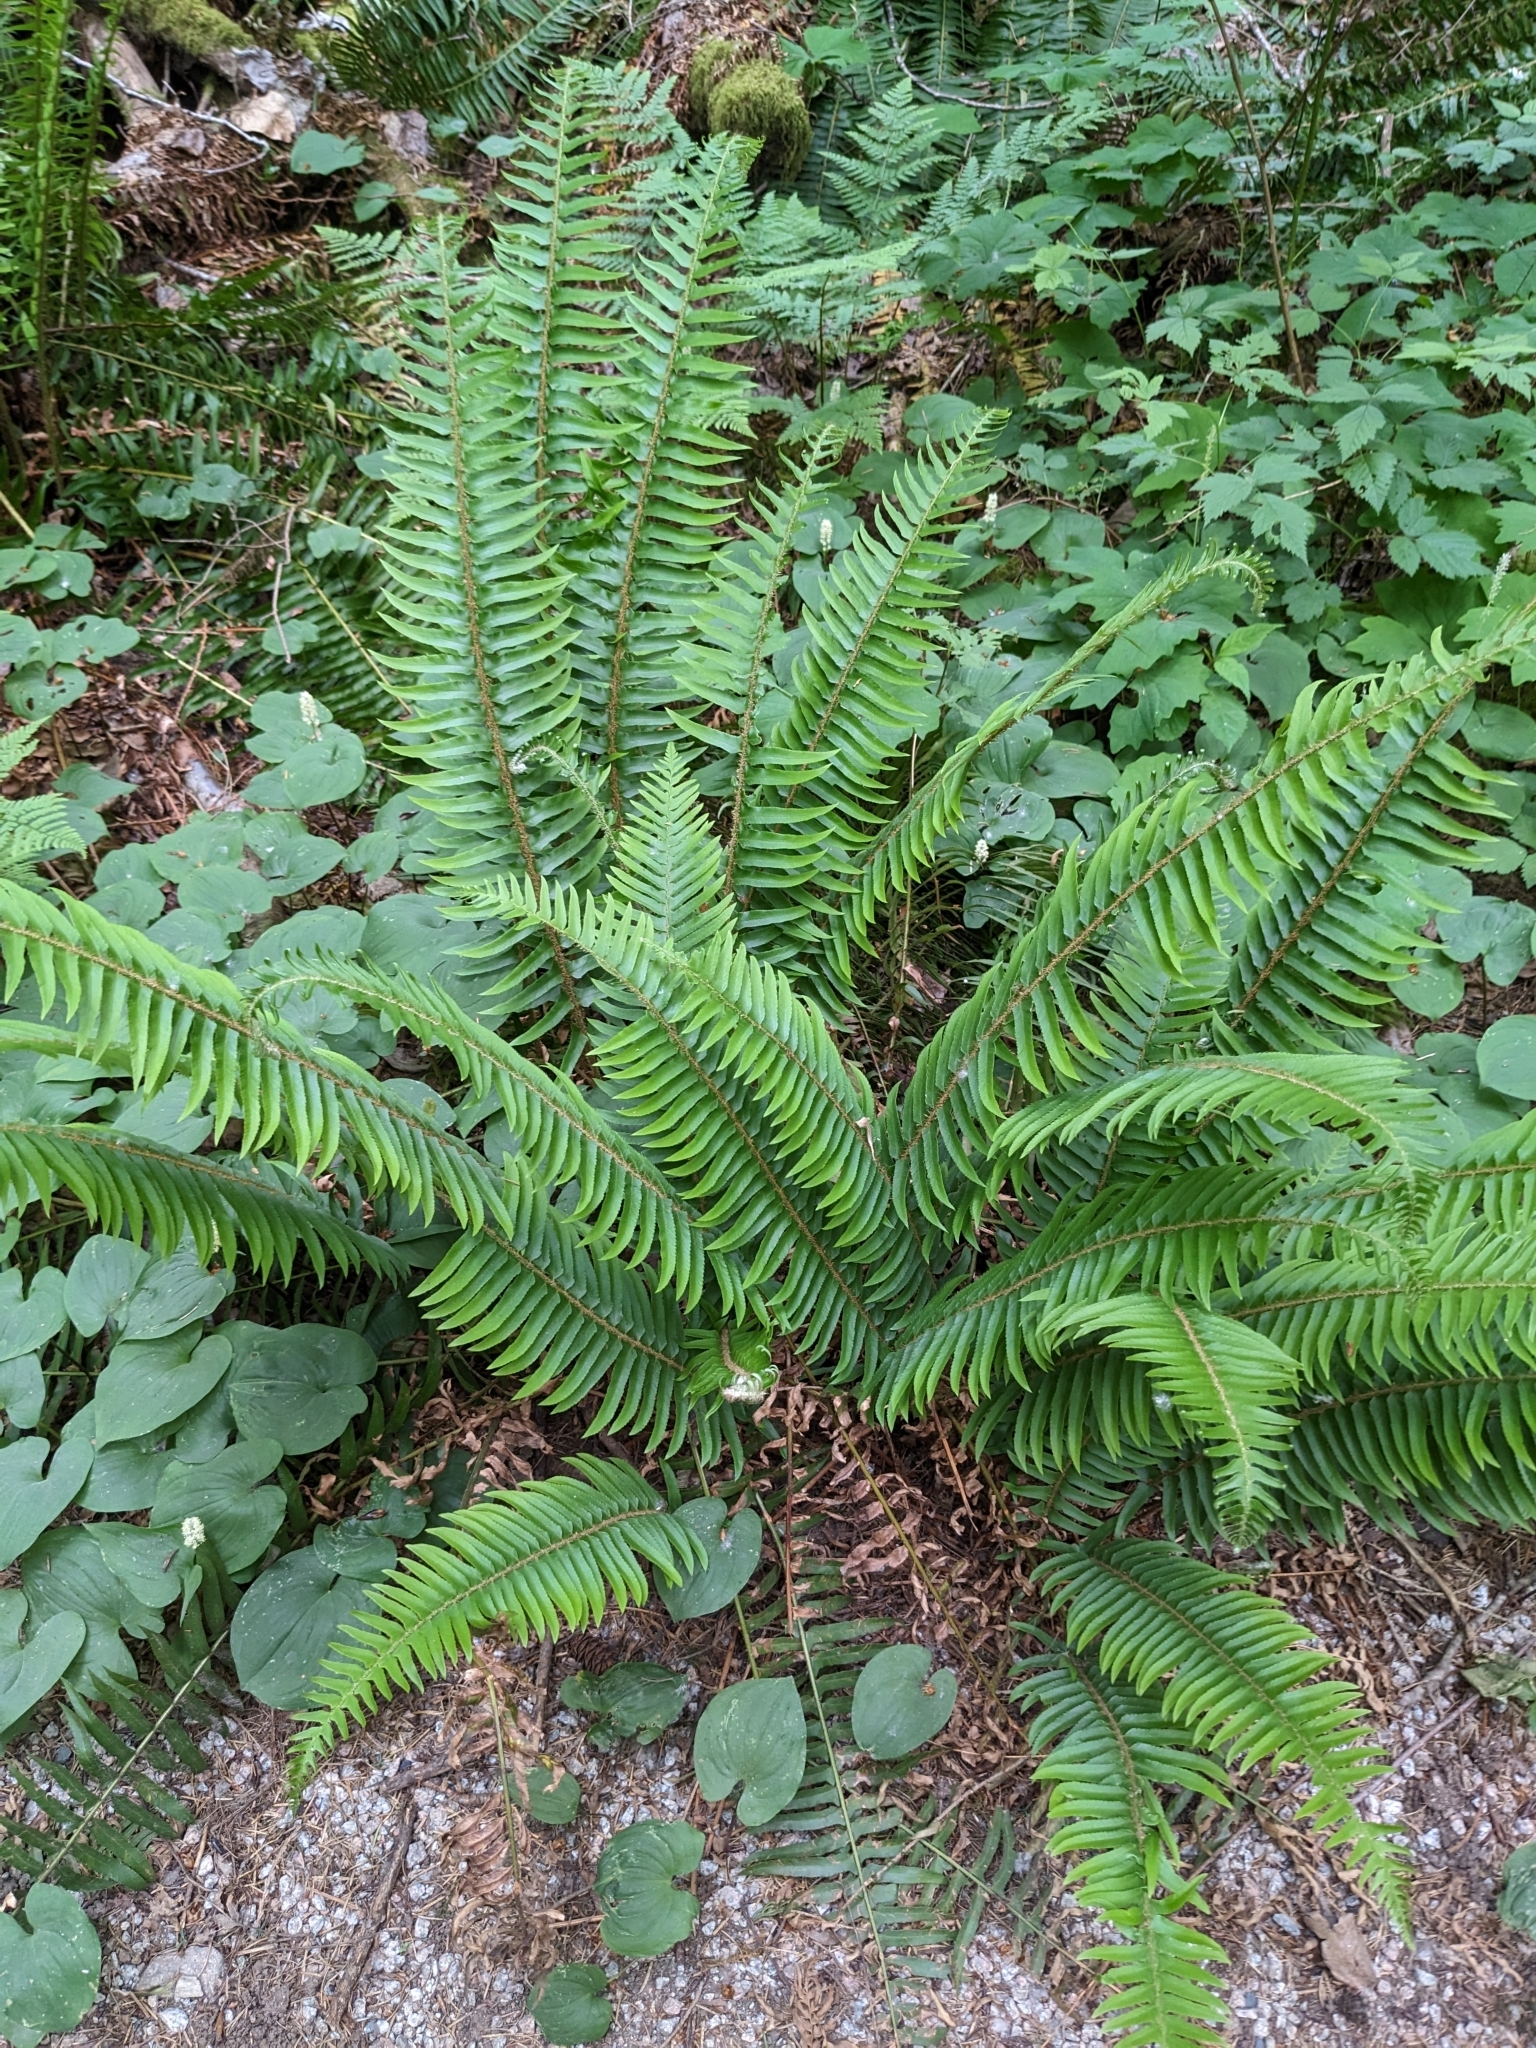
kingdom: Plantae
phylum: Tracheophyta
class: Polypodiopsida
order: Polypodiales
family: Dryopteridaceae
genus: Polystichum
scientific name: Polystichum munitum
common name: Western sword-fern
